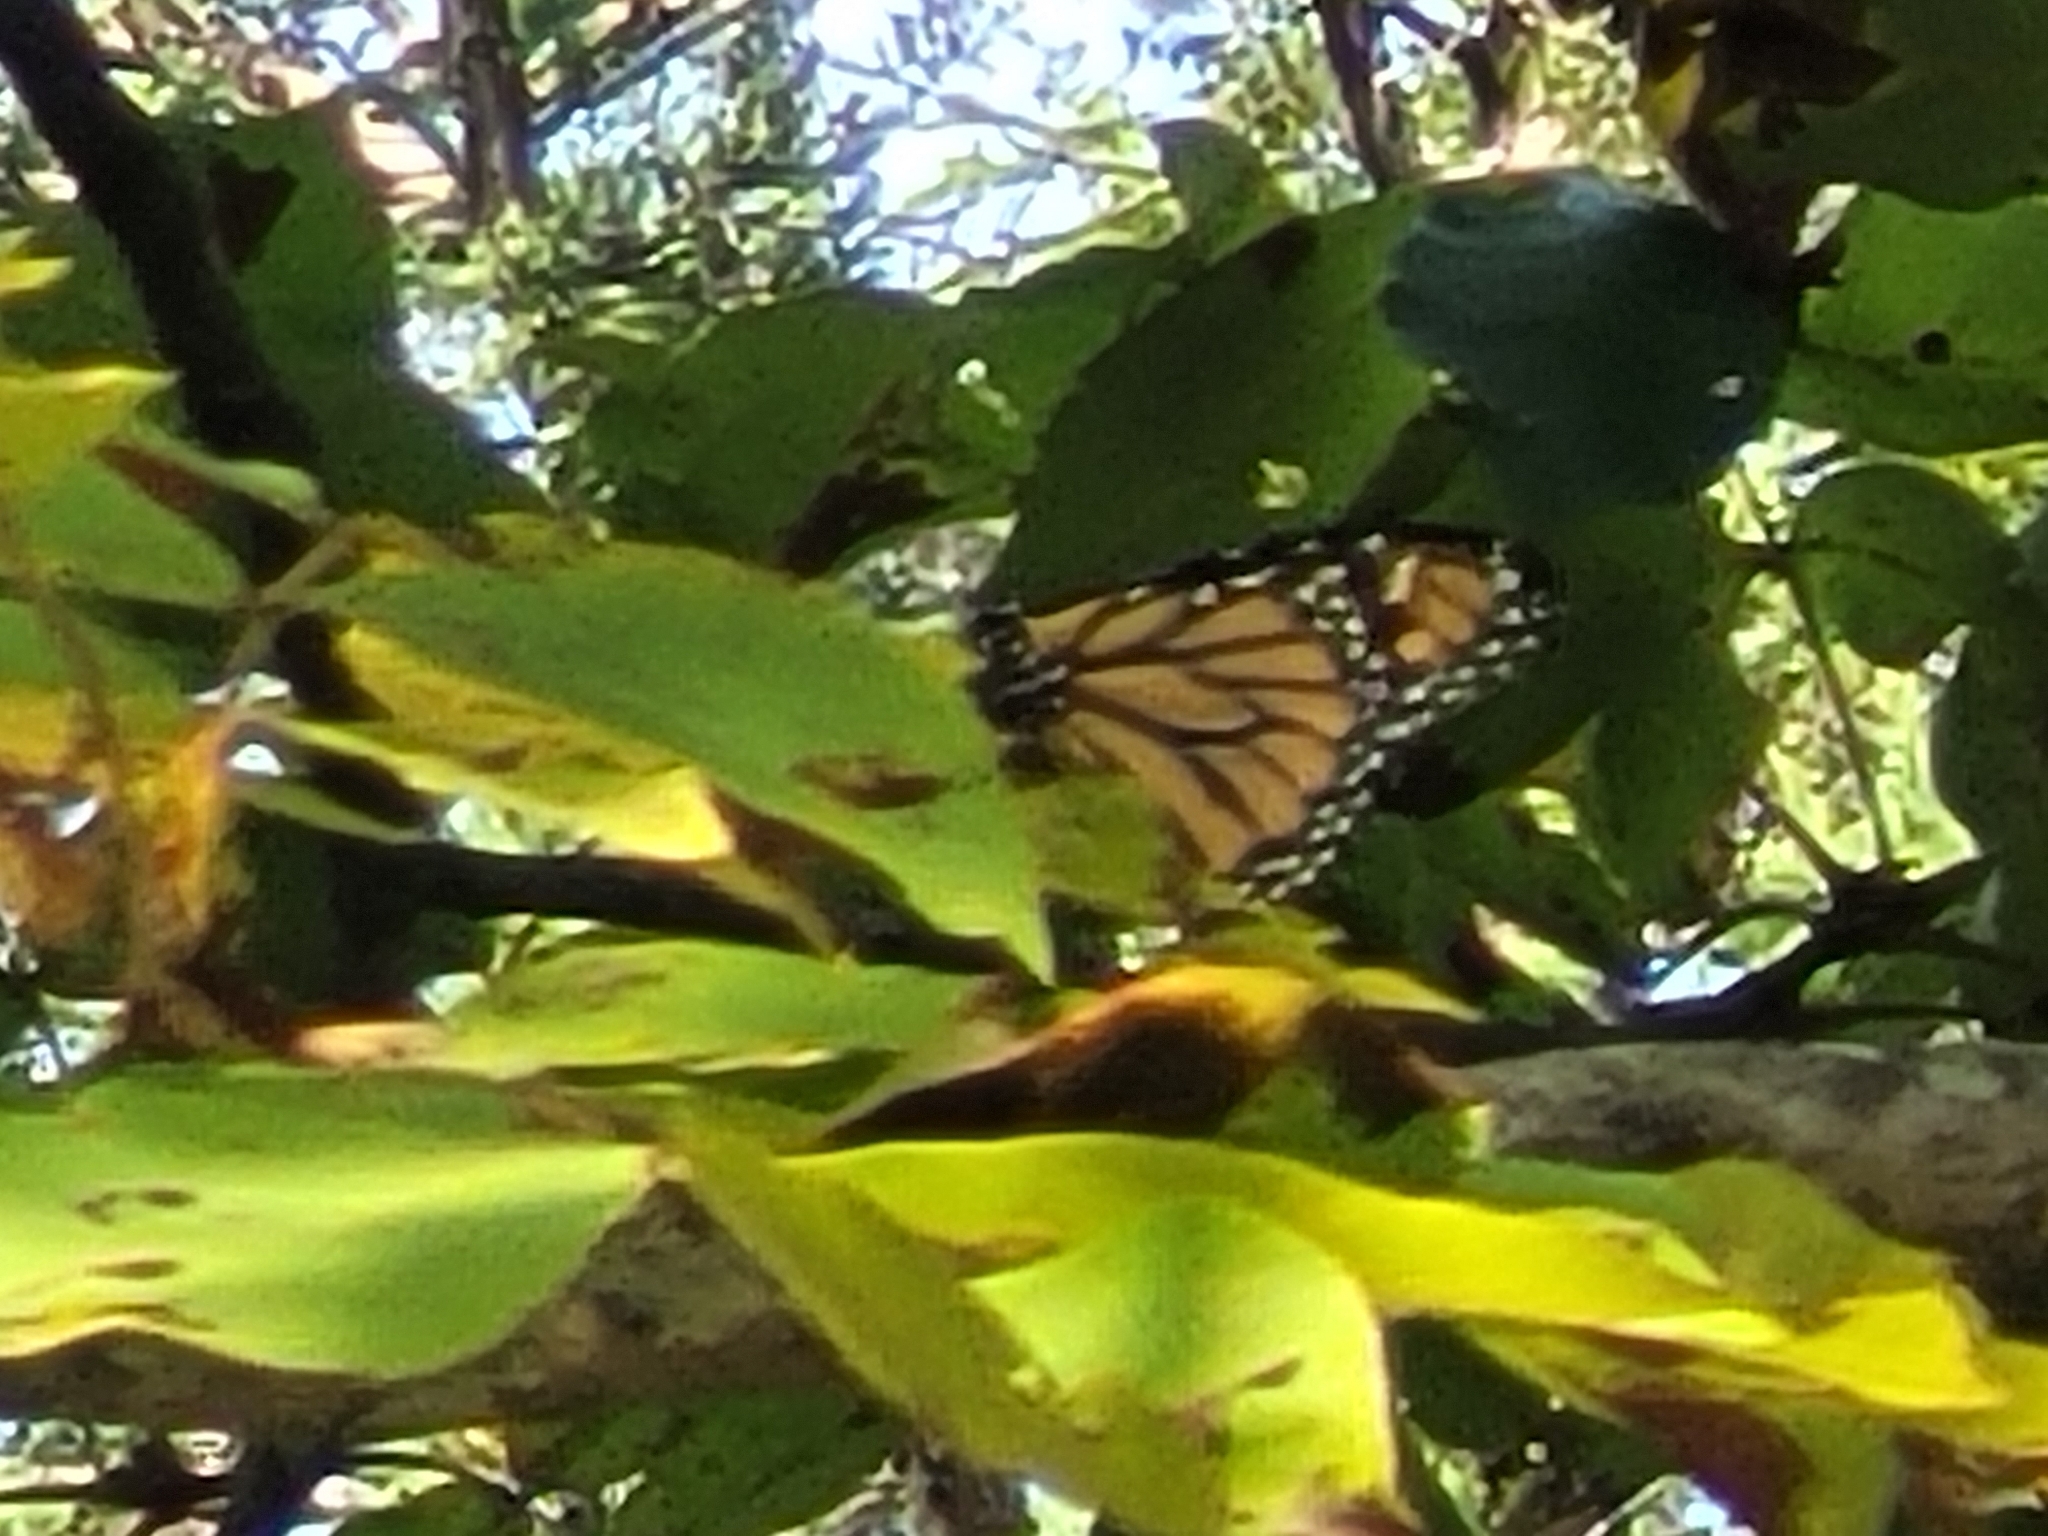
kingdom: Animalia
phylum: Arthropoda
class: Insecta
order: Lepidoptera
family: Nymphalidae
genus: Danaus
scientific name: Danaus plexippus
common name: Monarch
